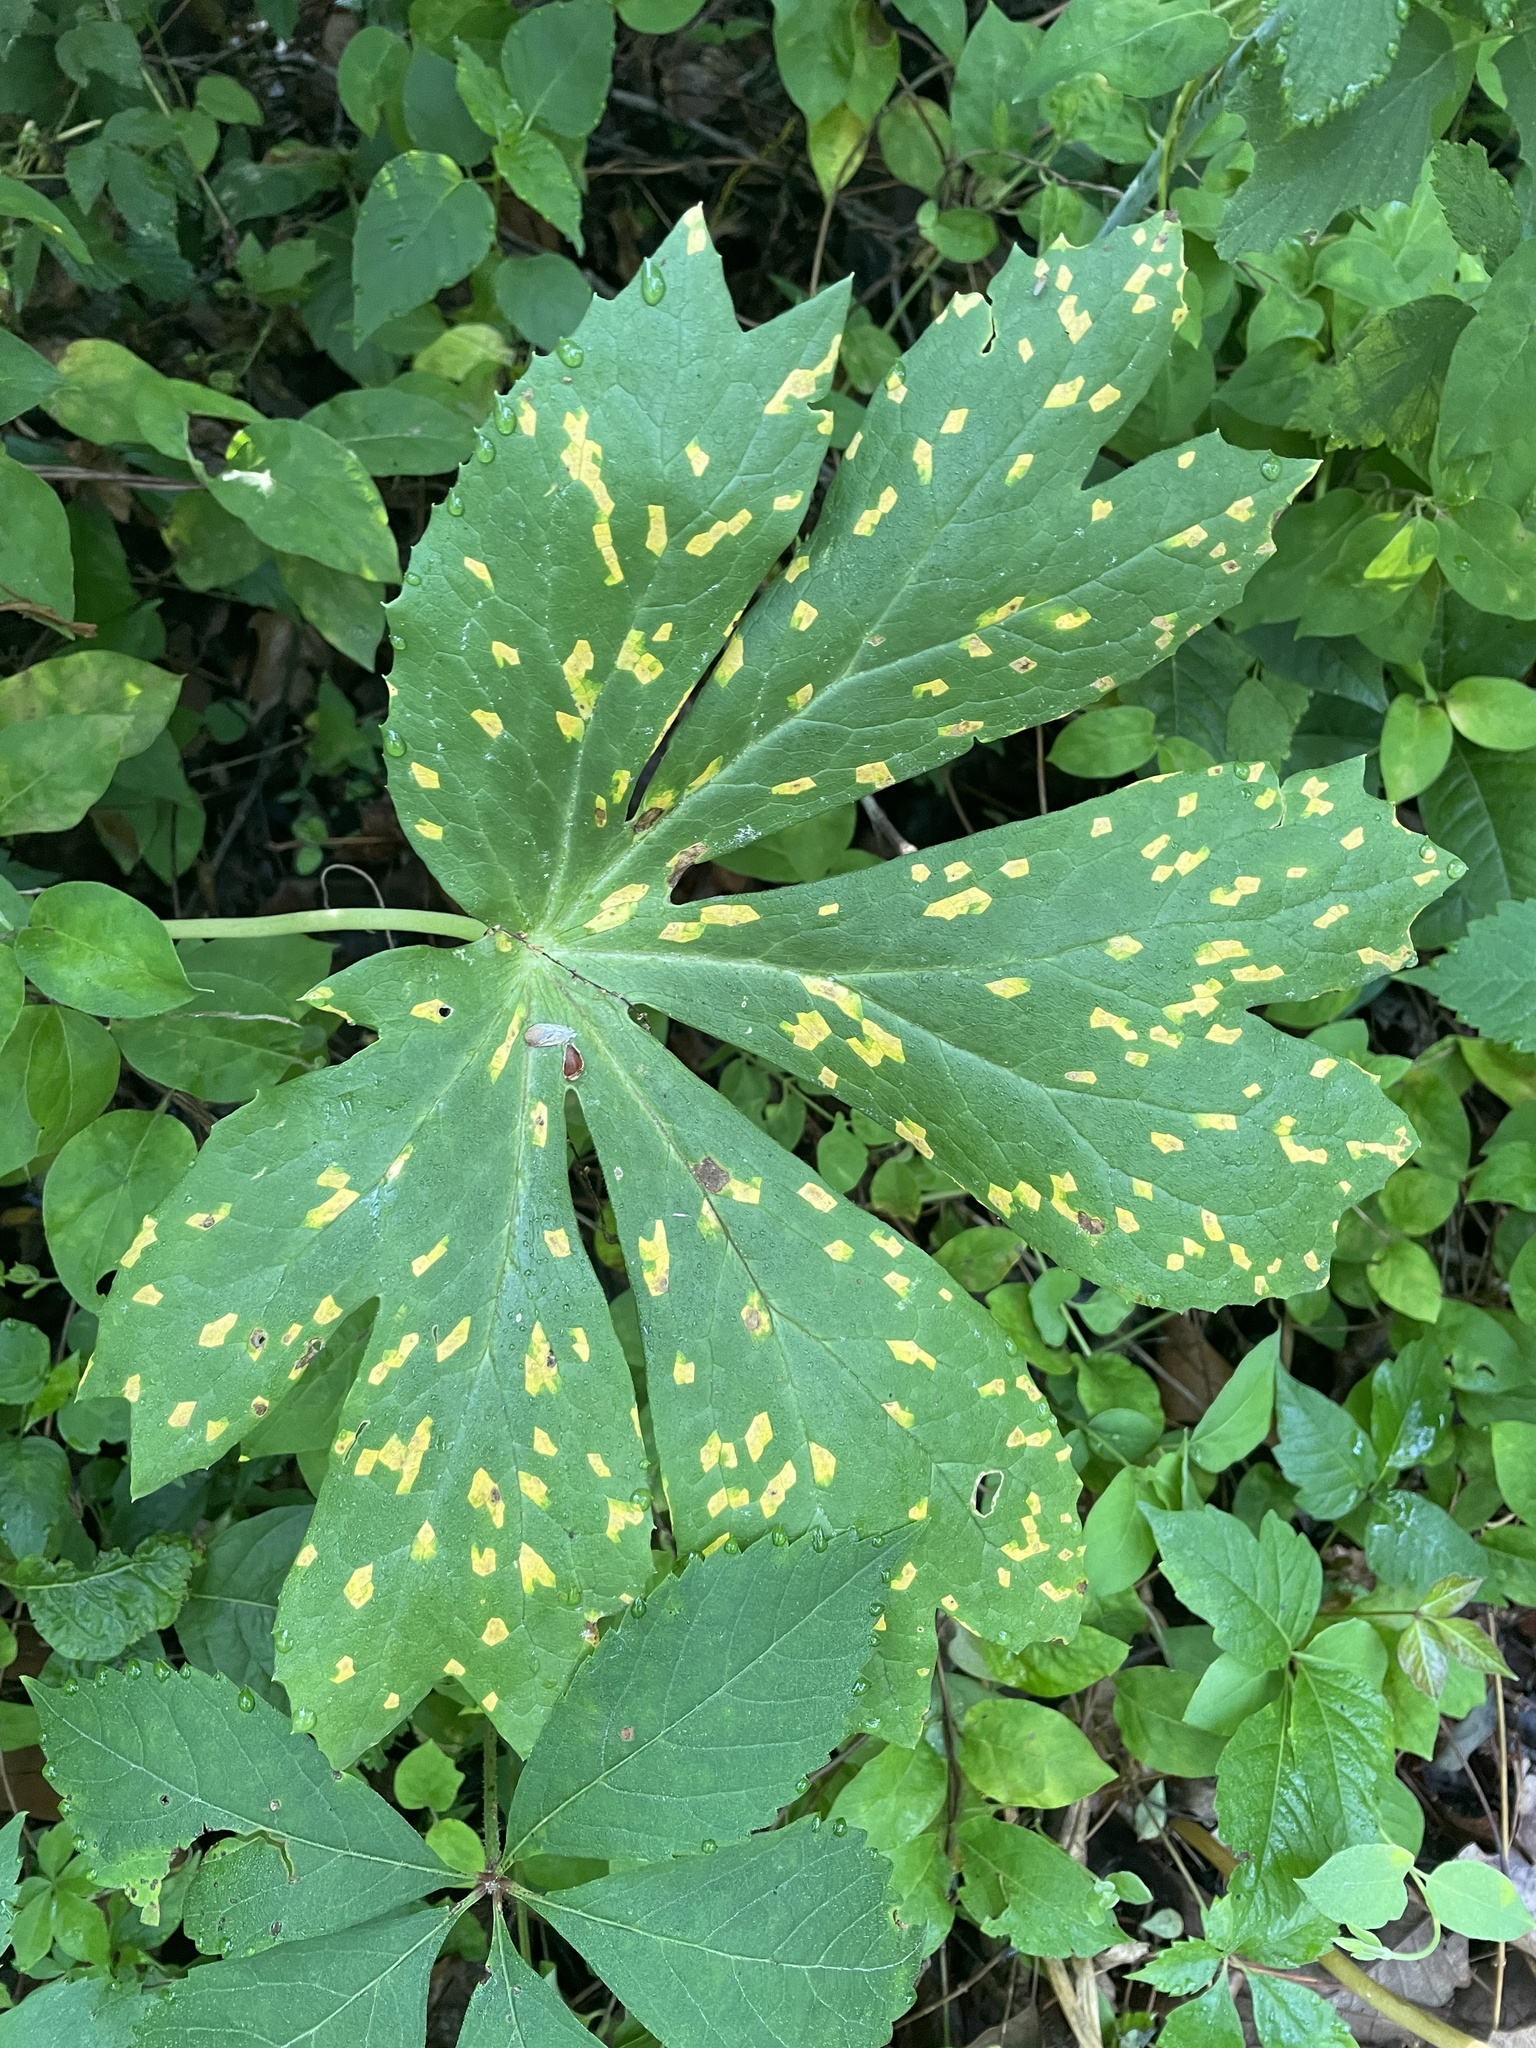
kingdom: Fungi
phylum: Basidiomycota
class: Pucciniomycetes
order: Pucciniales
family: Pucciniaceae
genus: Puccinia
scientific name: Puccinia podophylli
